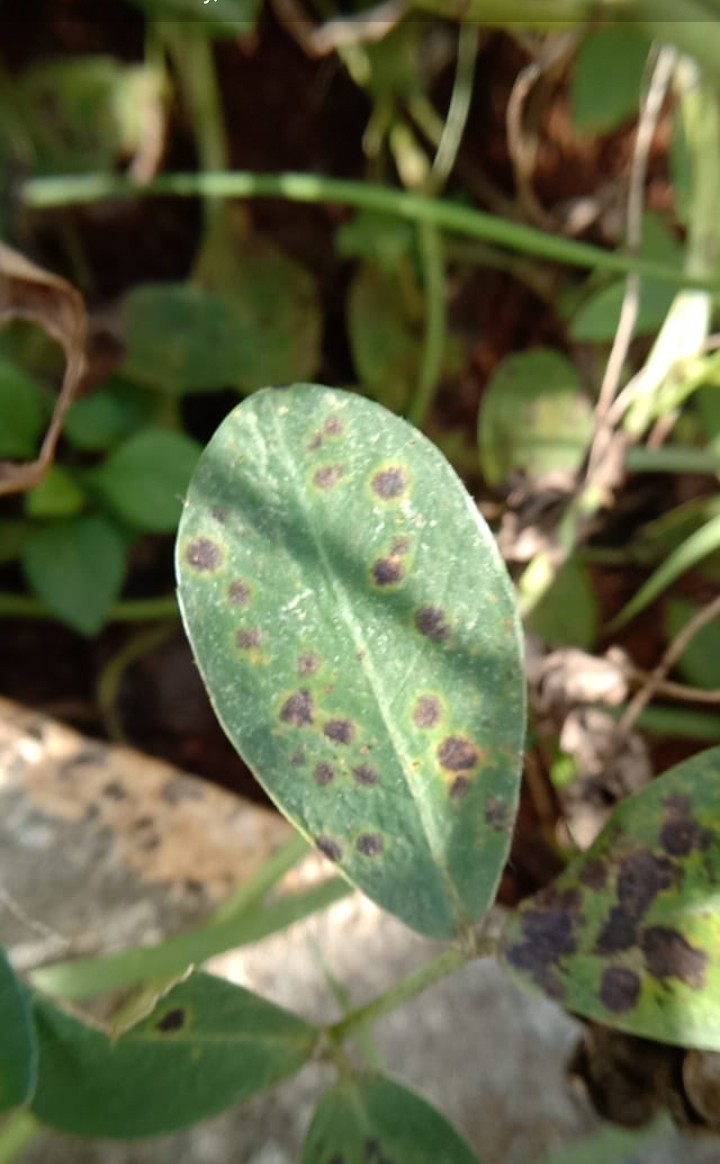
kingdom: Fungi
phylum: Ascomycota
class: Dothideomycetes
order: Mycosphaerellales
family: Mycosphaerellaceae
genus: Cercospora
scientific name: Cercospora arachidicola
